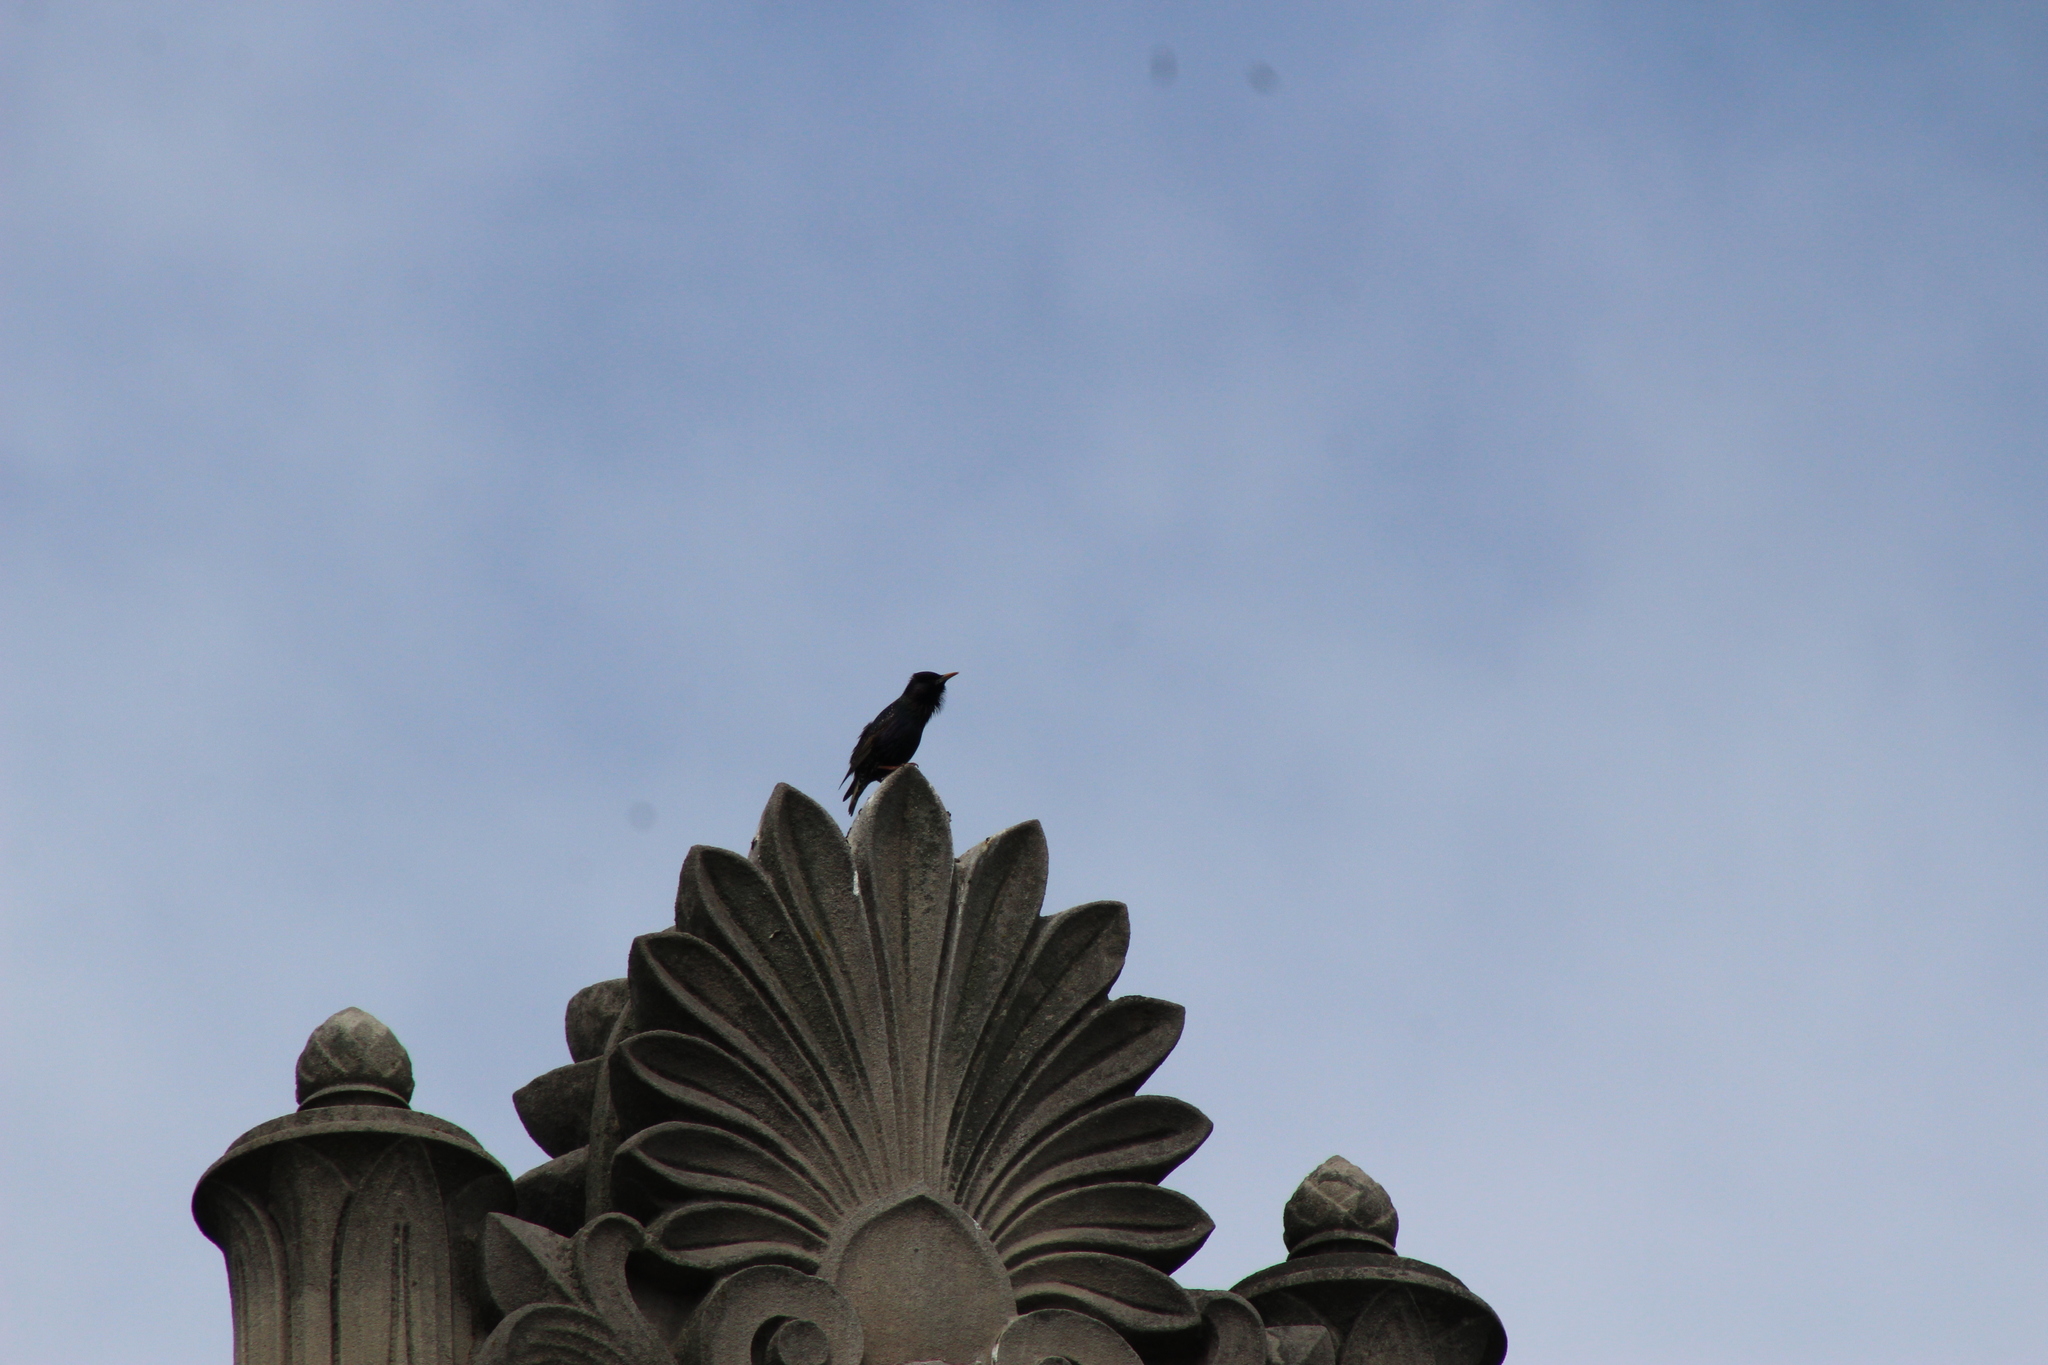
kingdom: Animalia
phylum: Chordata
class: Aves
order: Passeriformes
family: Sturnidae
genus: Sturnus
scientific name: Sturnus vulgaris
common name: Common starling
